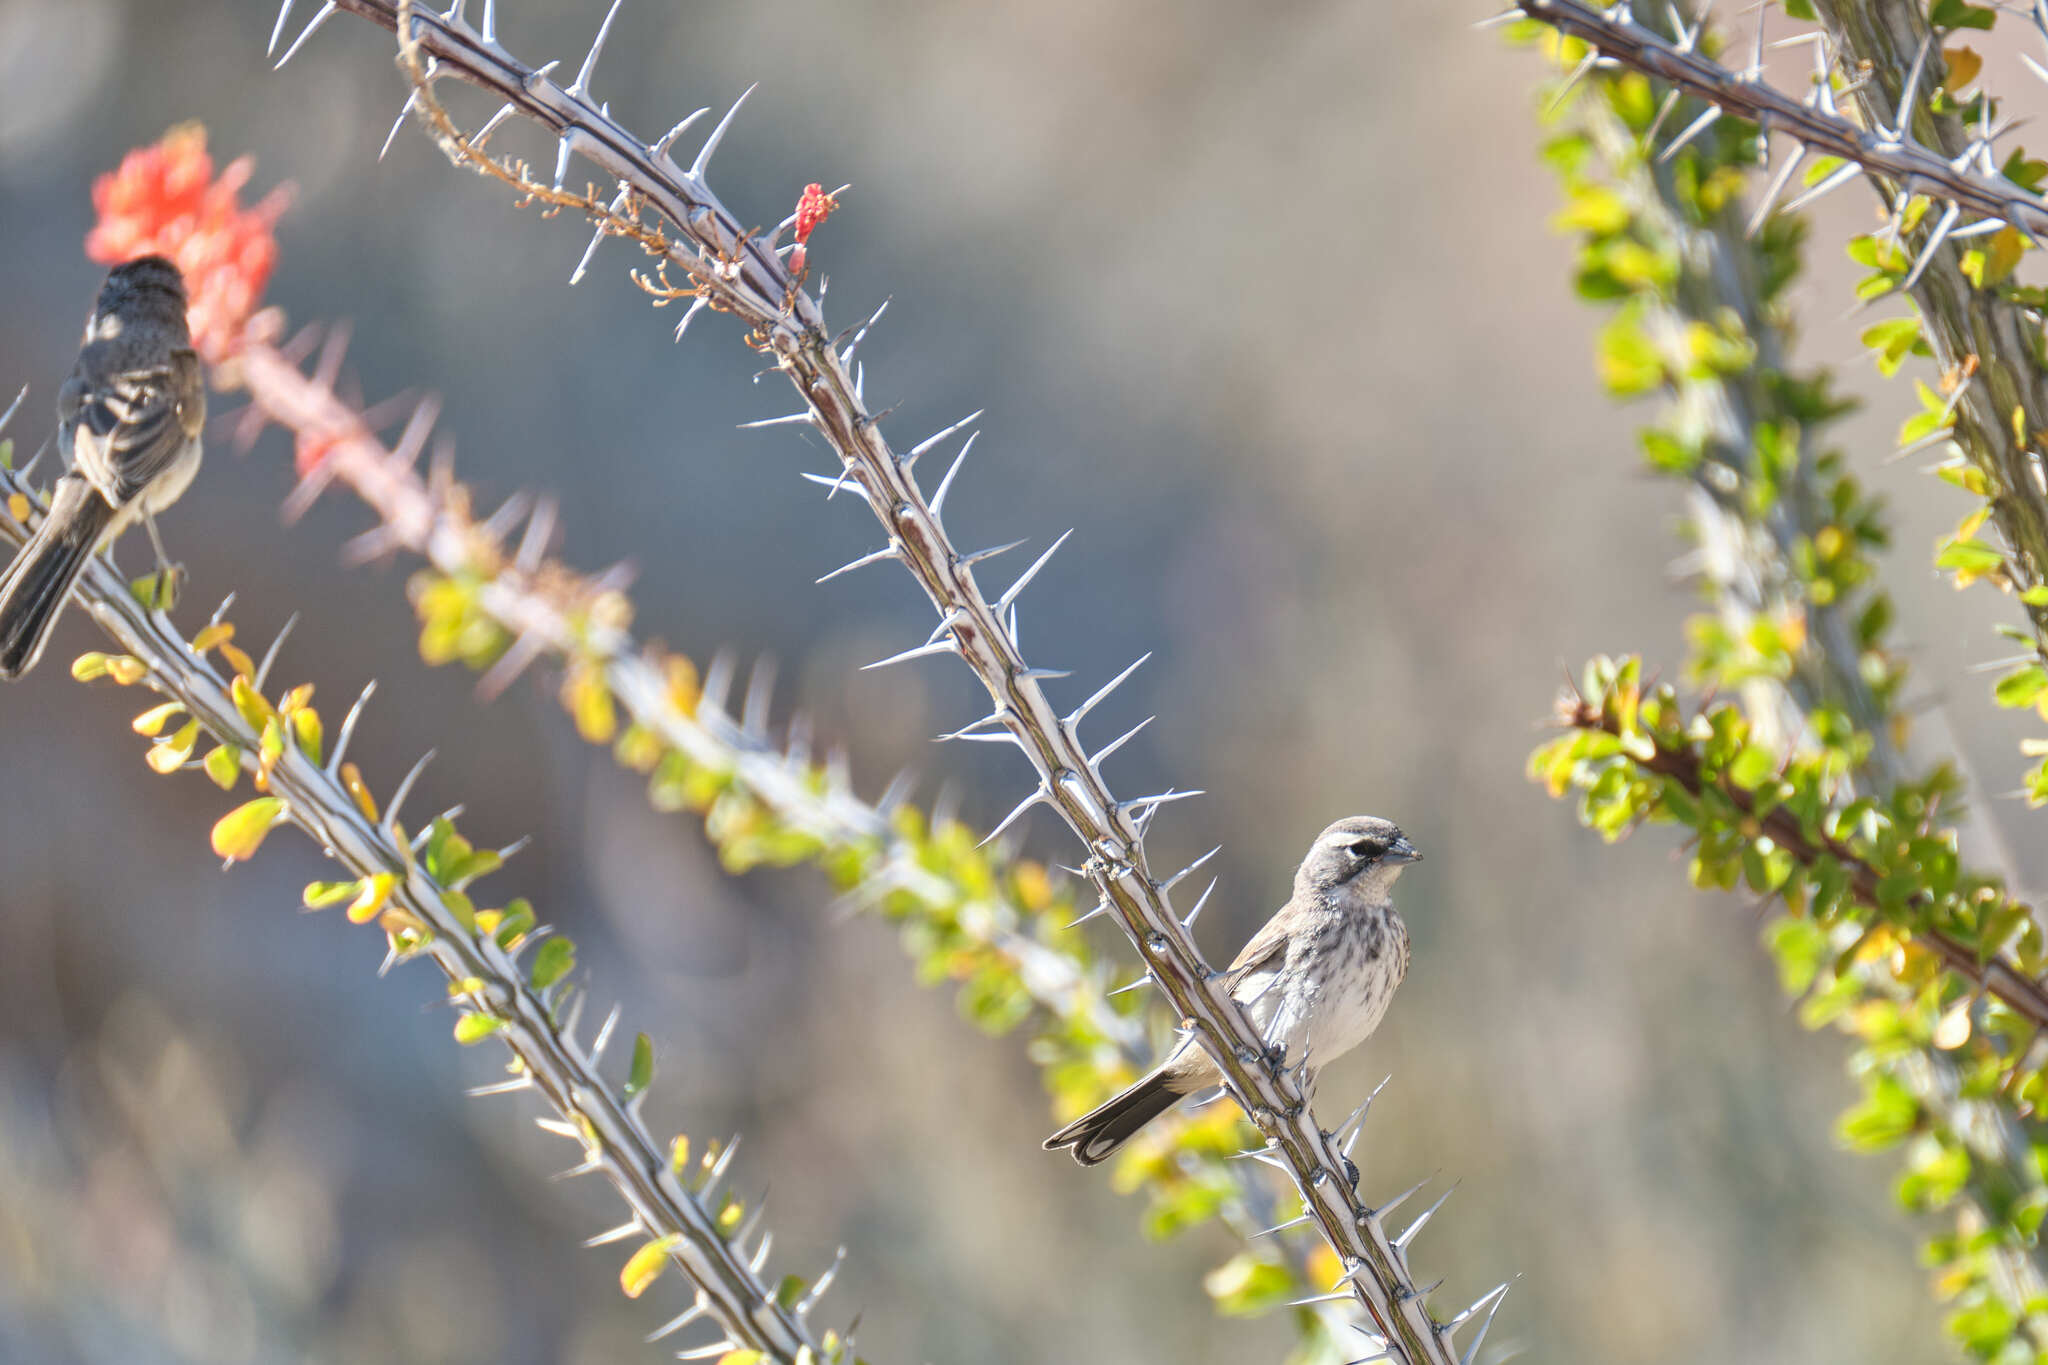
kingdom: Animalia
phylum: Chordata
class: Aves
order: Passeriformes
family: Passerellidae
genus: Amphispiza
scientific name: Amphispiza bilineata
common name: Black-throated sparrow
